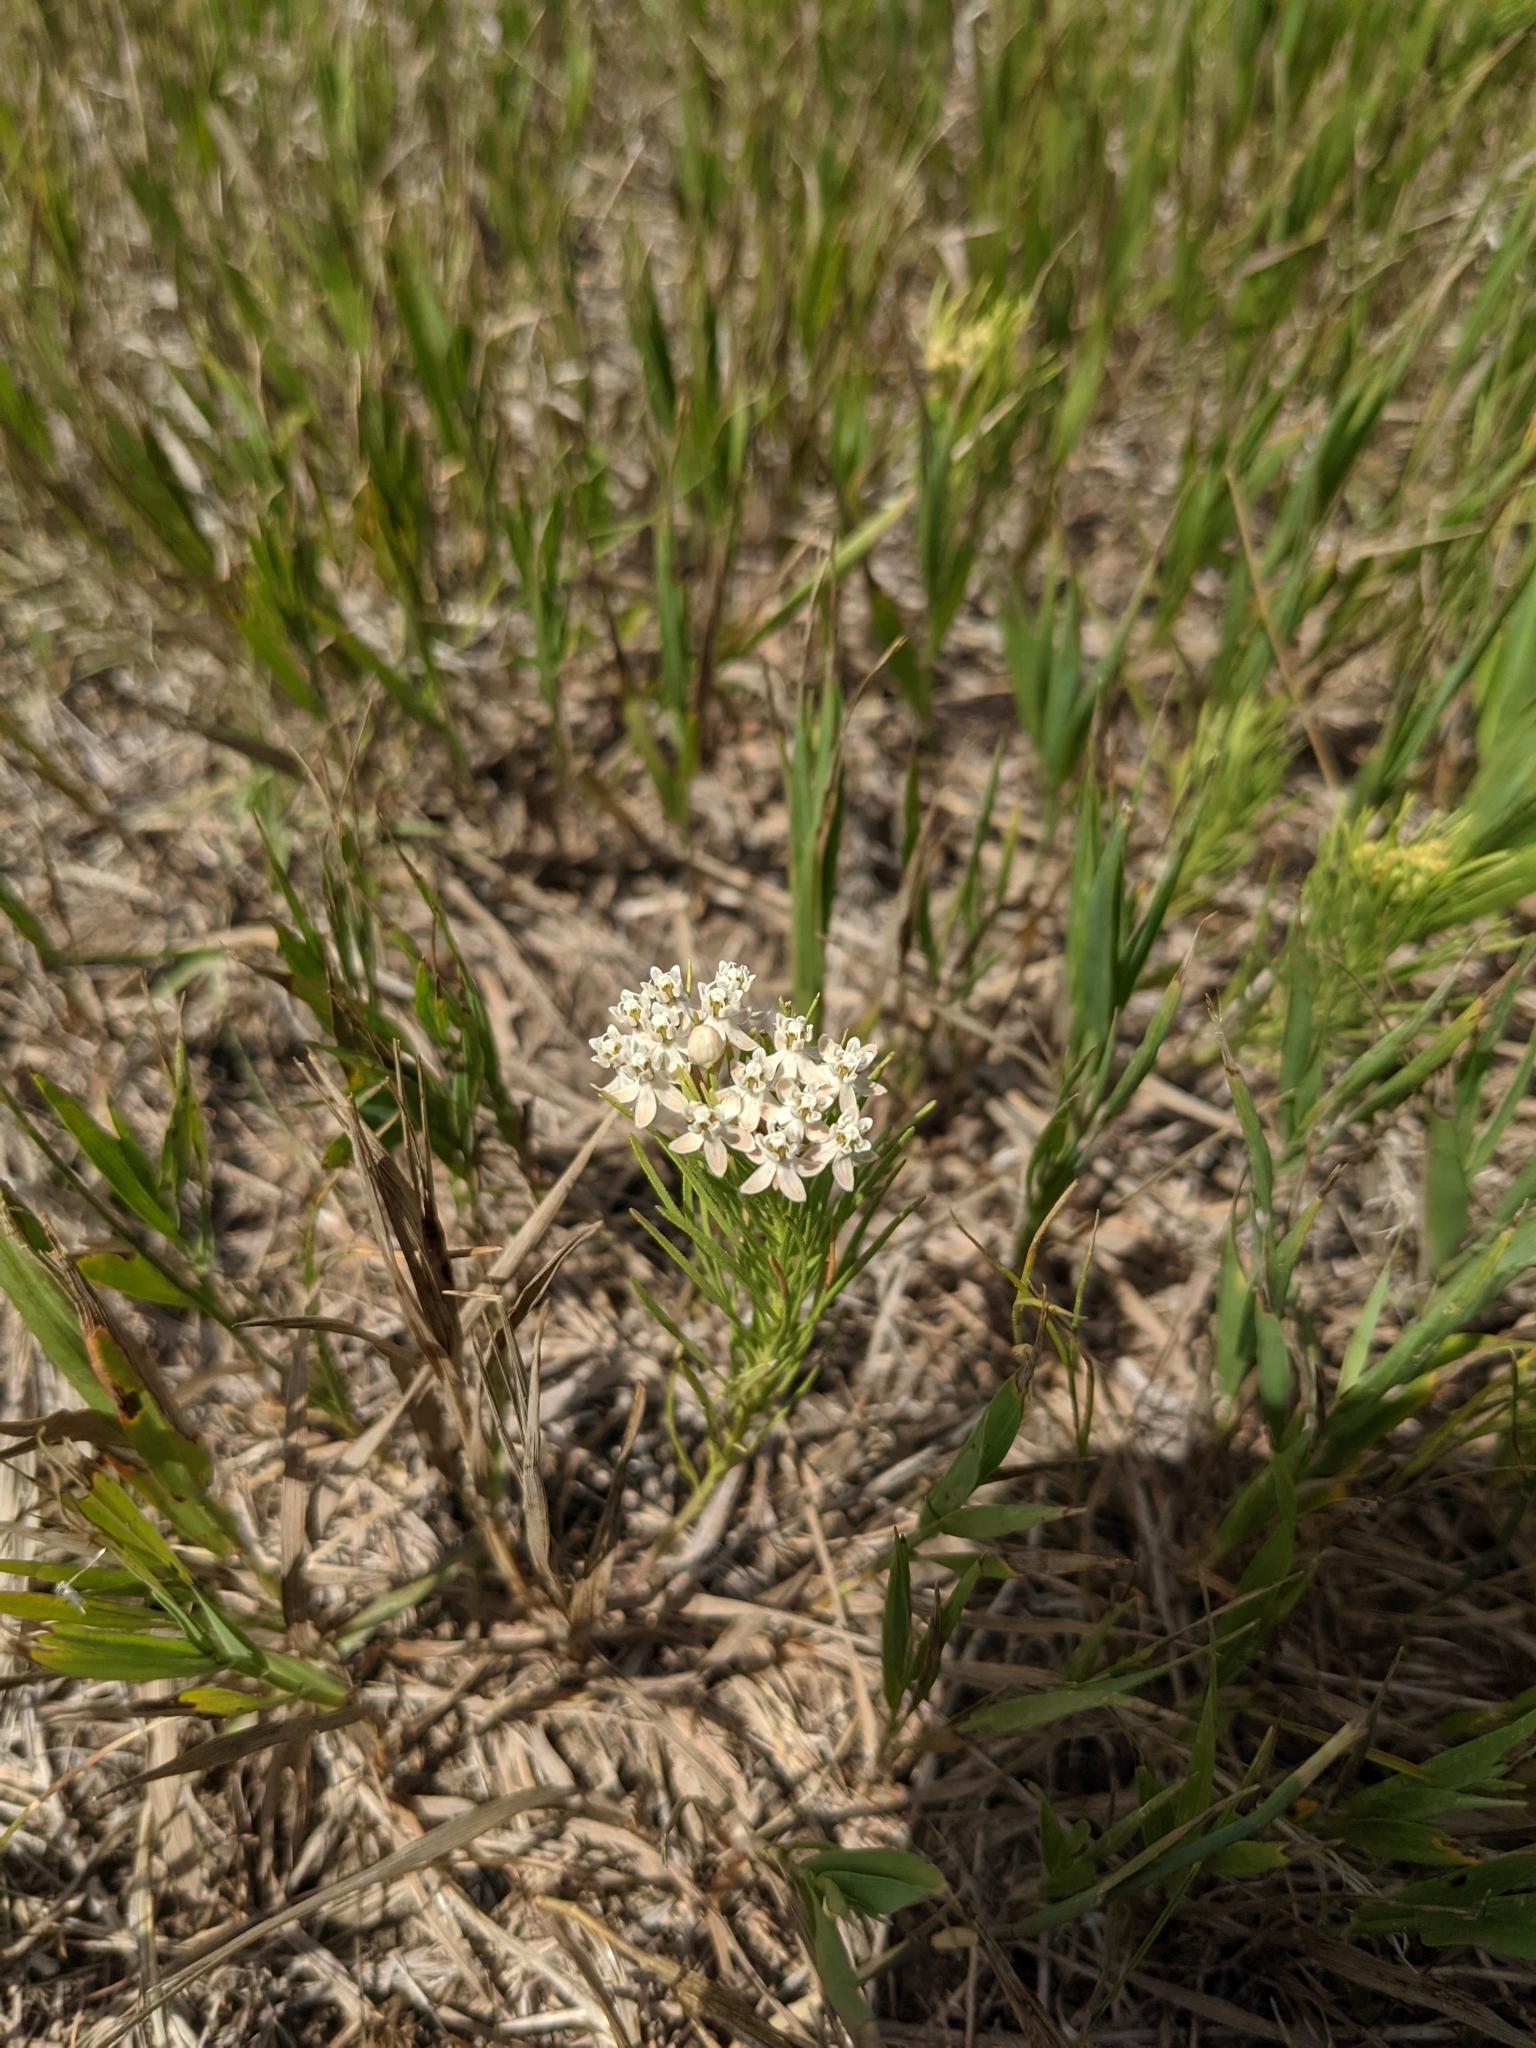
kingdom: Plantae
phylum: Tracheophyta
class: Magnoliopsida
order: Gentianales
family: Apocynaceae
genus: Asclepias
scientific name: Asclepias pumila
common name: Dwarf milkweed
